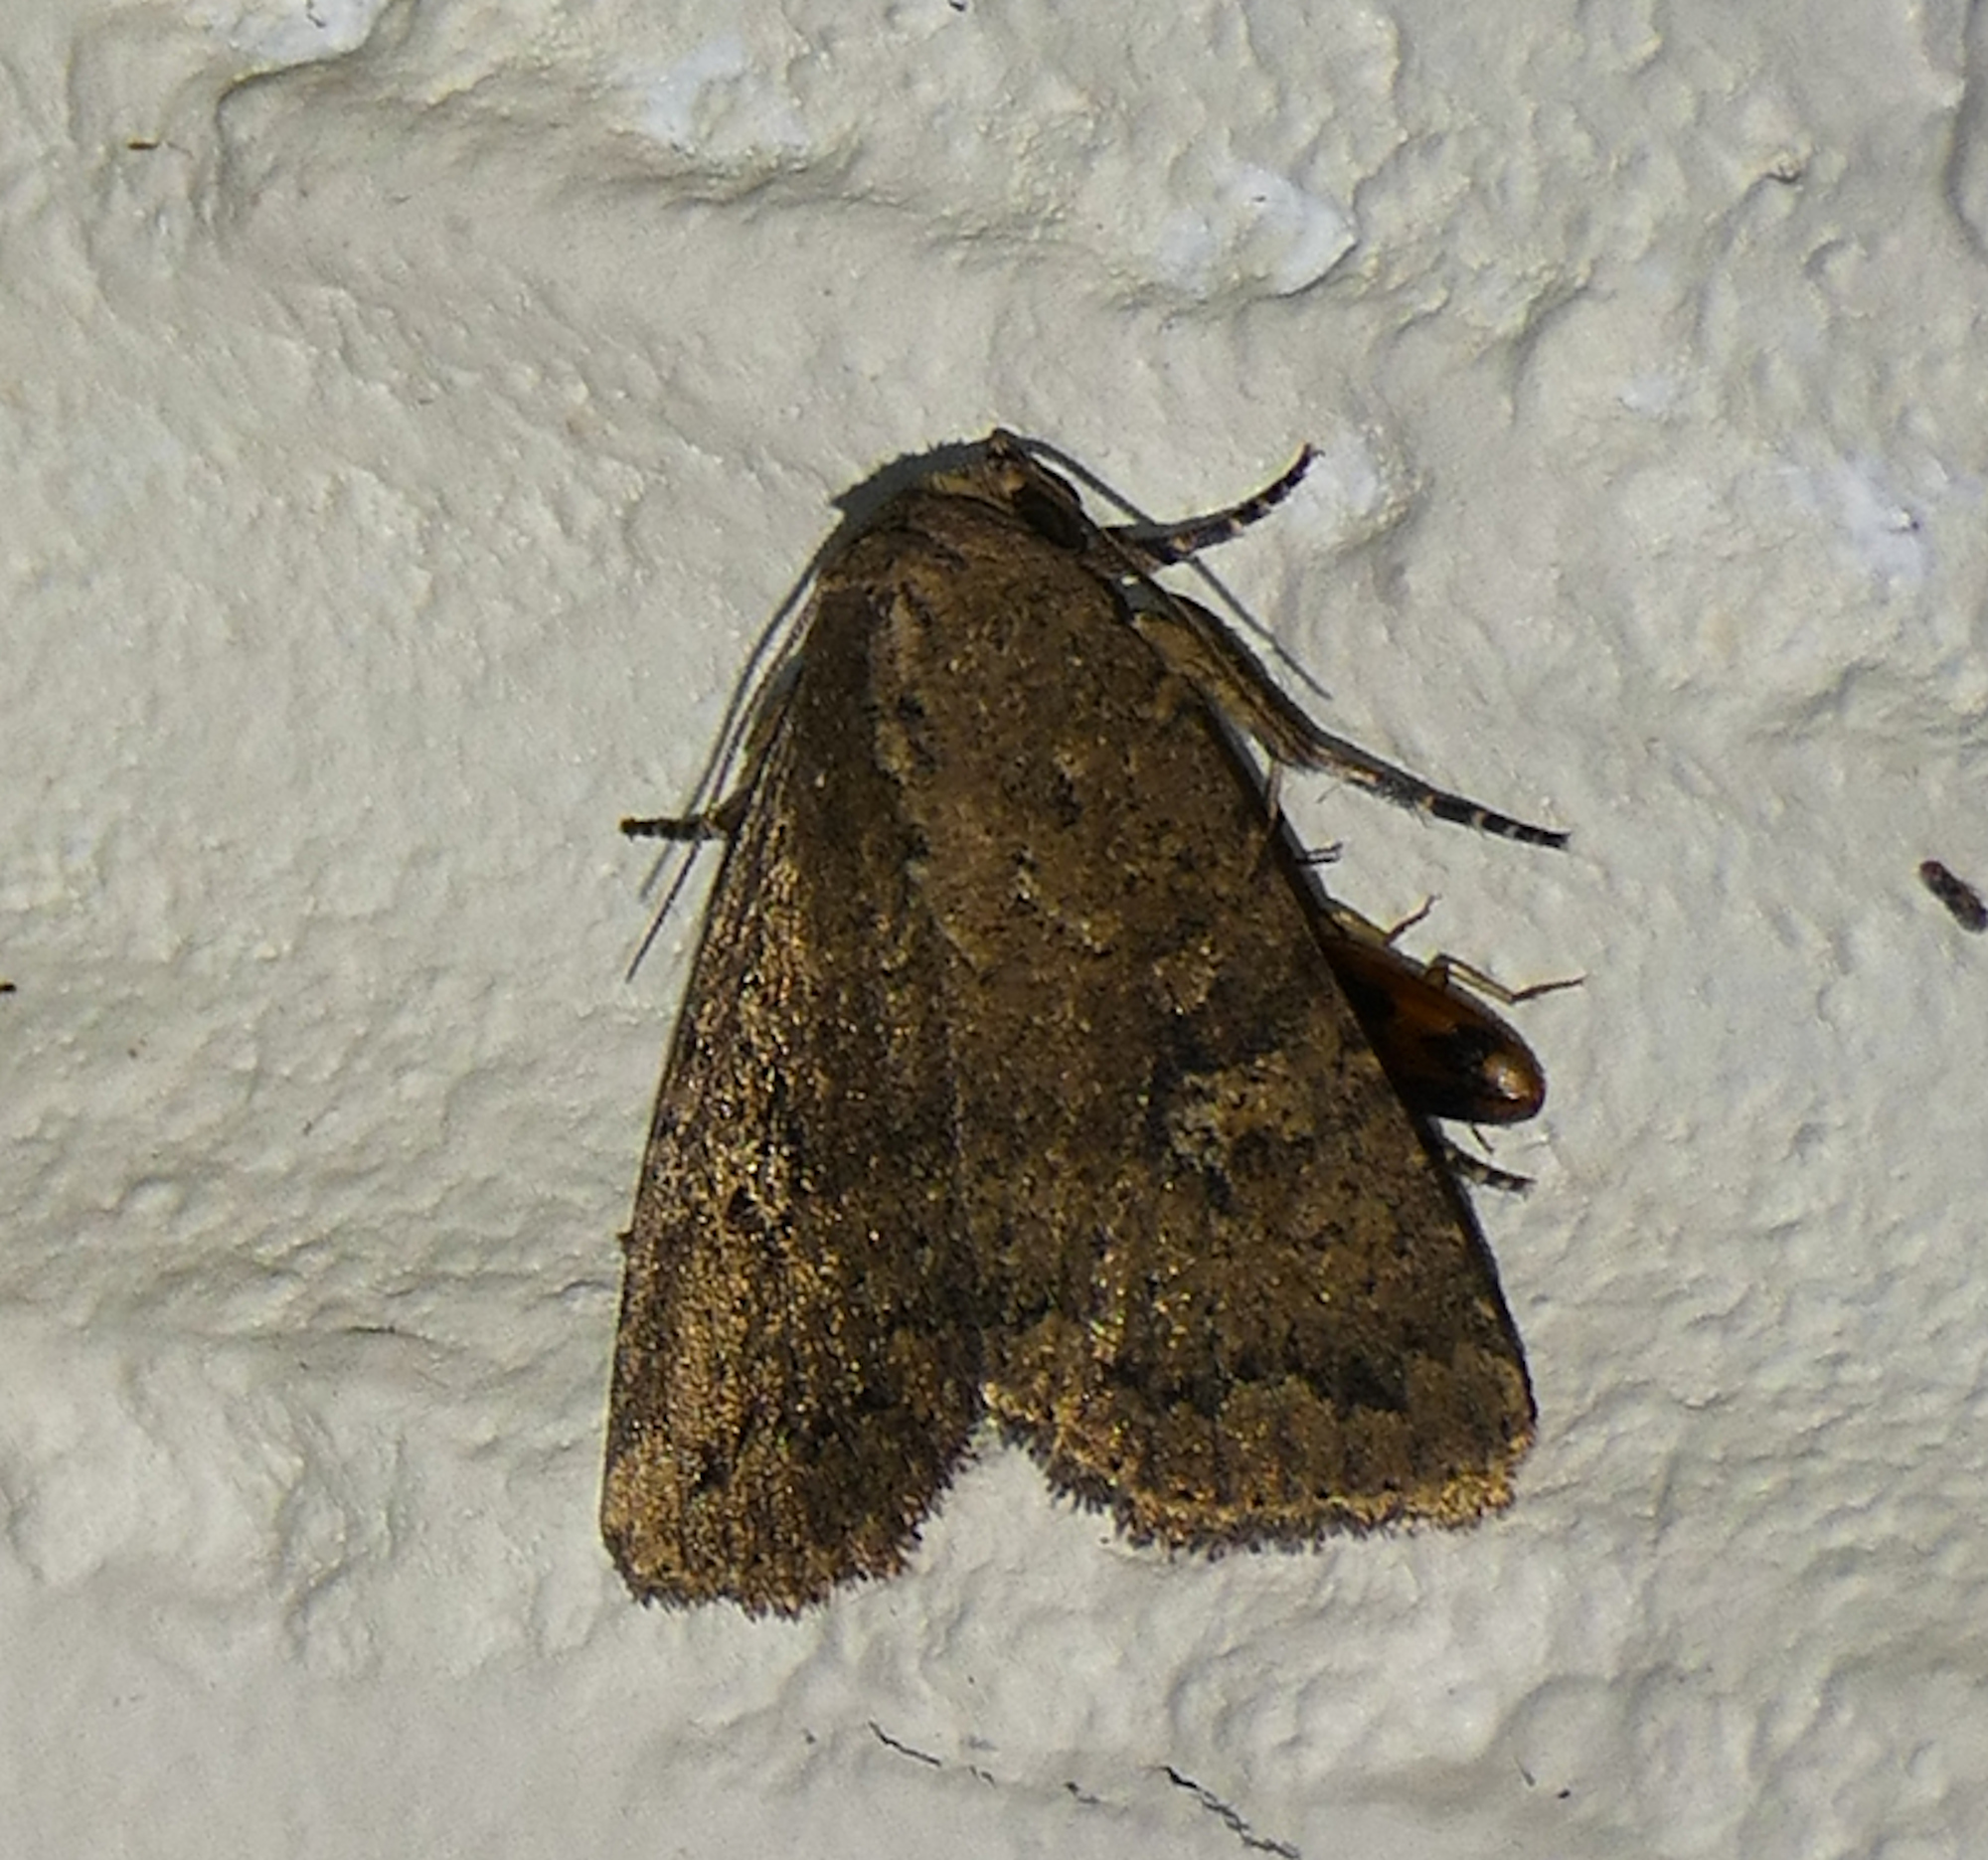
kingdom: Animalia
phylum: Arthropoda
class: Insecta
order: Lepidoptera
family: Noctuidae
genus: Condica
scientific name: Condica sutor
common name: Cobbler moth
